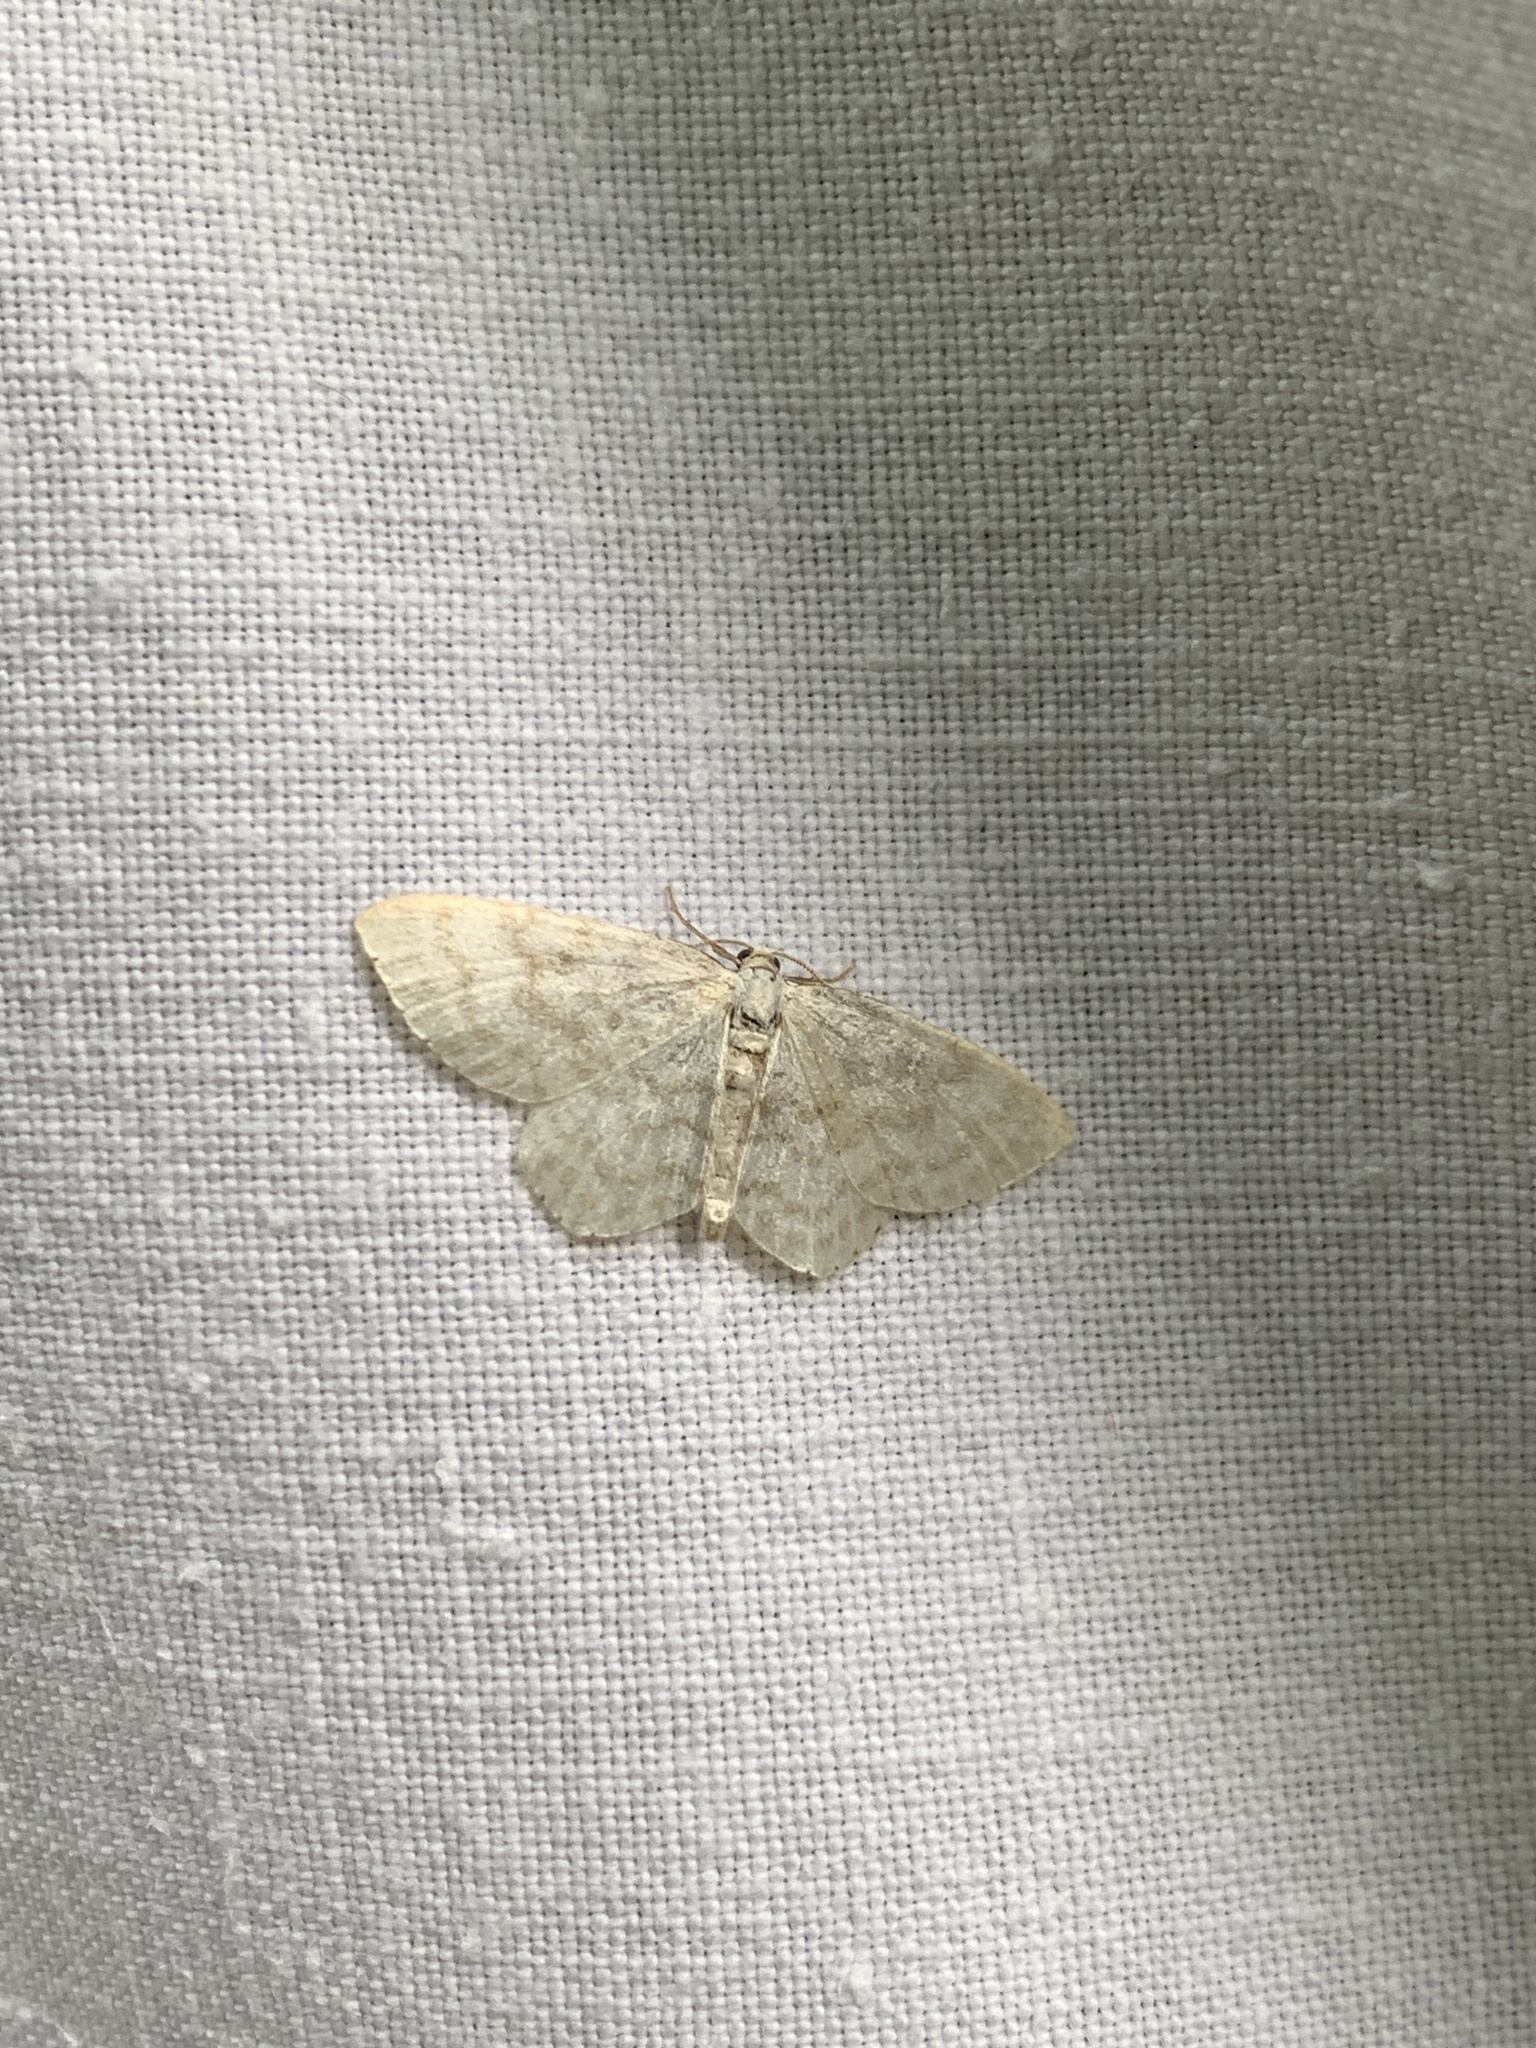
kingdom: Animalia
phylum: Arthropoda
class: Insecta
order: Lepidoptera
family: Geometridae
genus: Asthena
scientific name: Asthena albulata
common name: Small white wave
